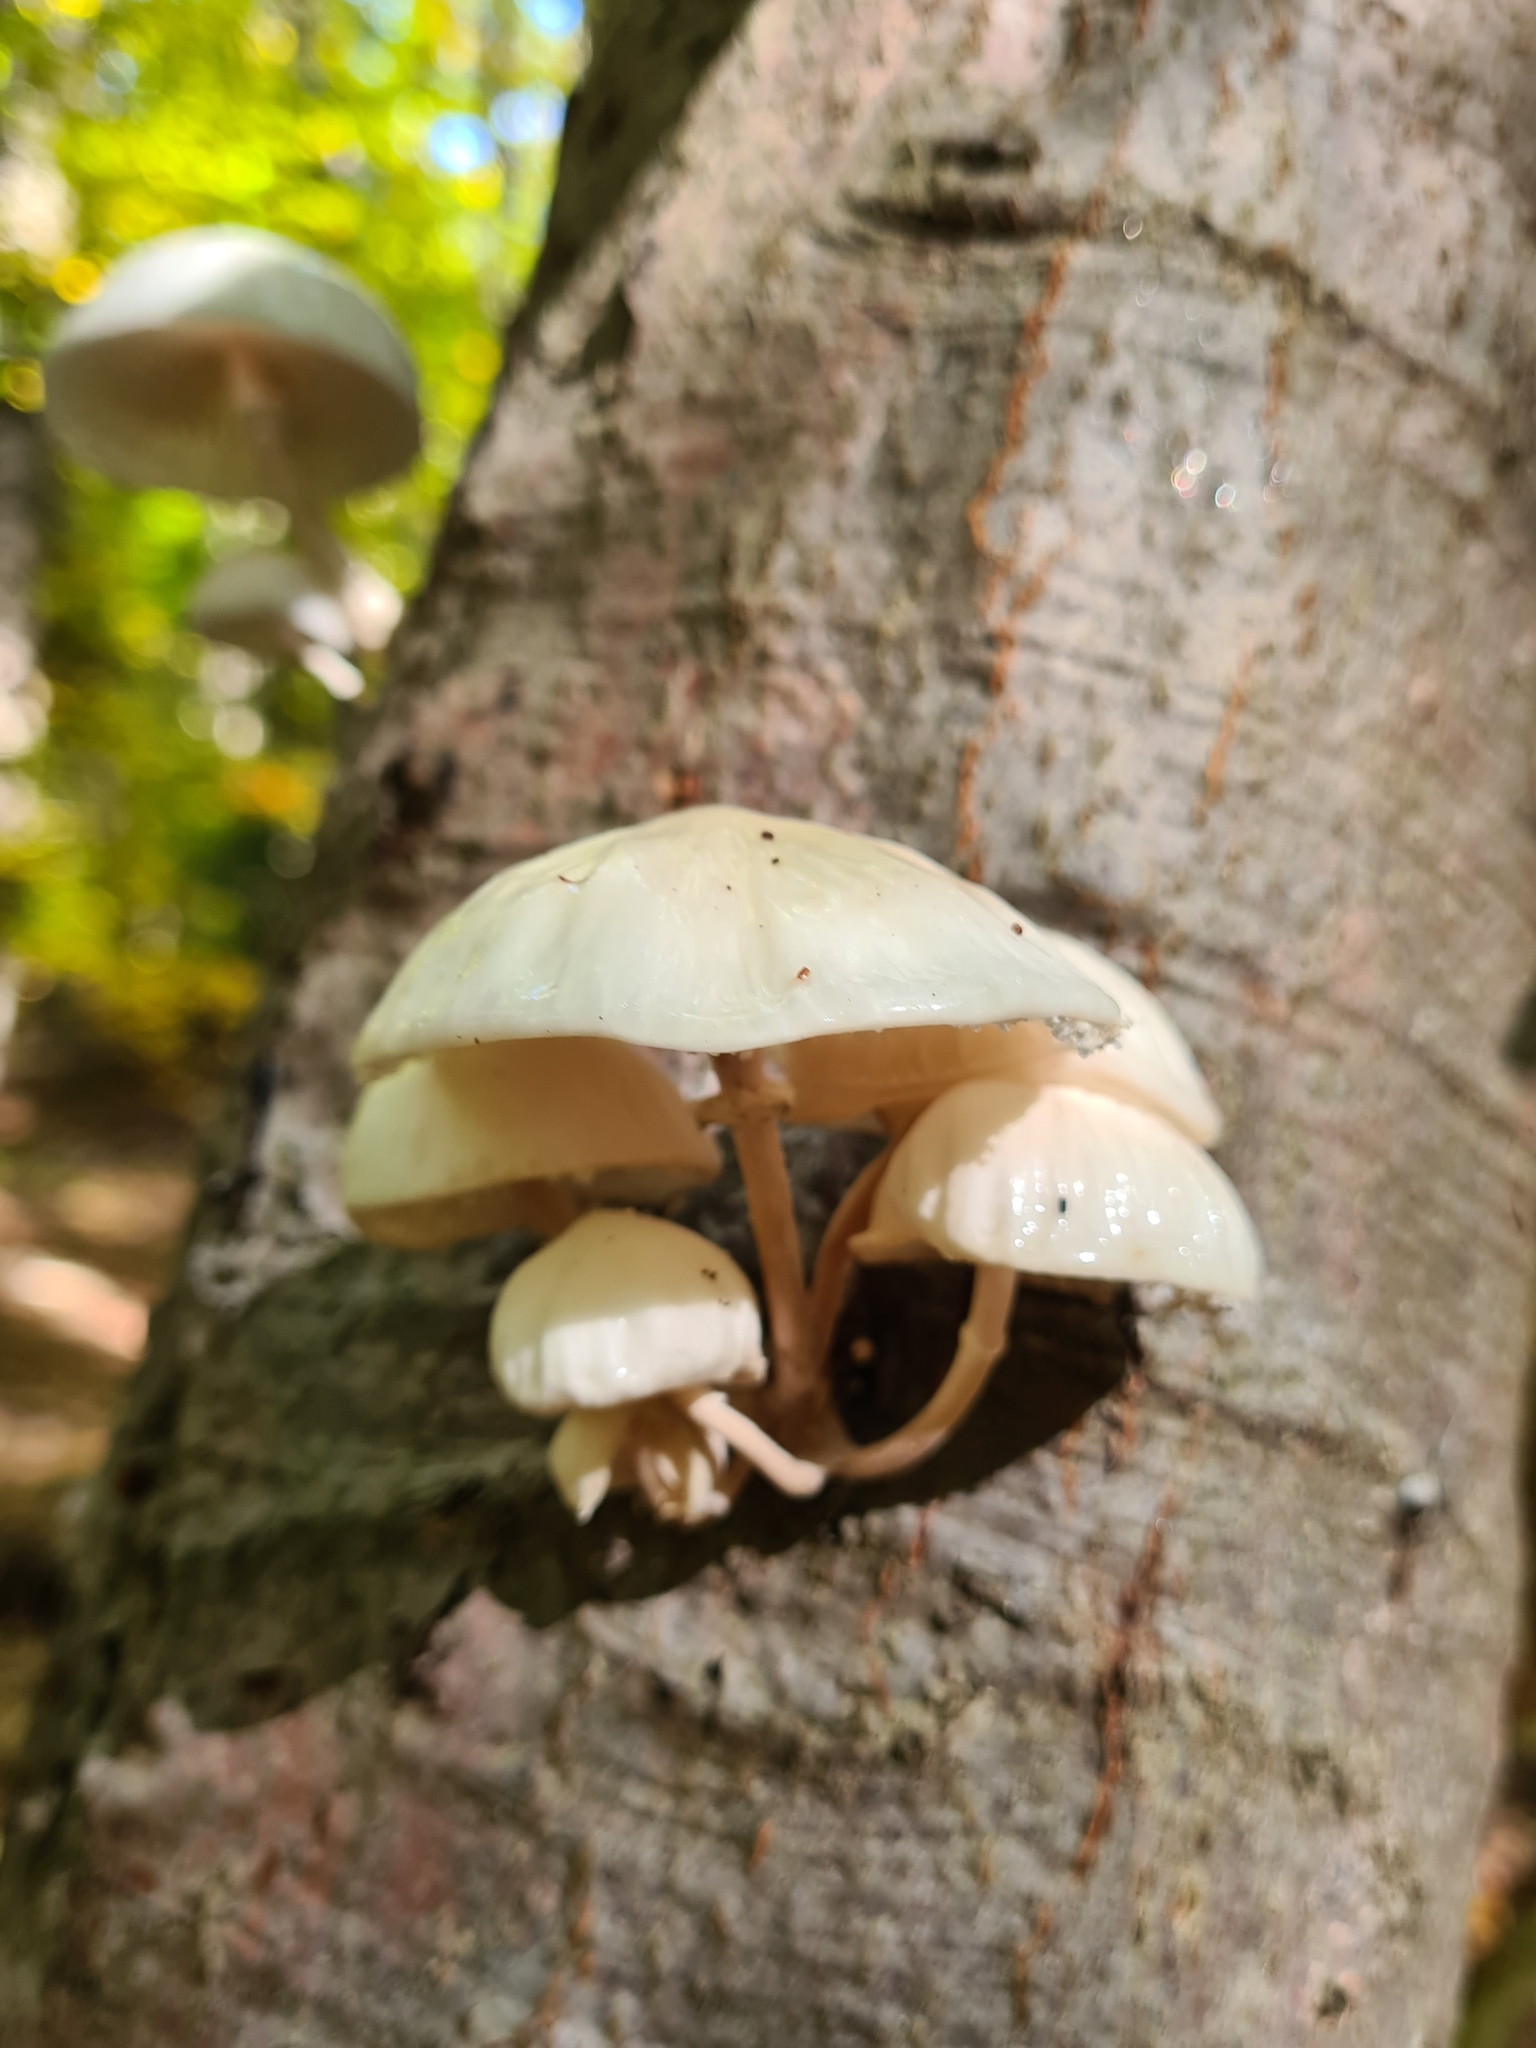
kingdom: Fungi
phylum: Basidiomycota
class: Agaricomycetes
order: Agaricales
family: Physalacriaceae
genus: Mucidula
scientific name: Mucidula mucida
